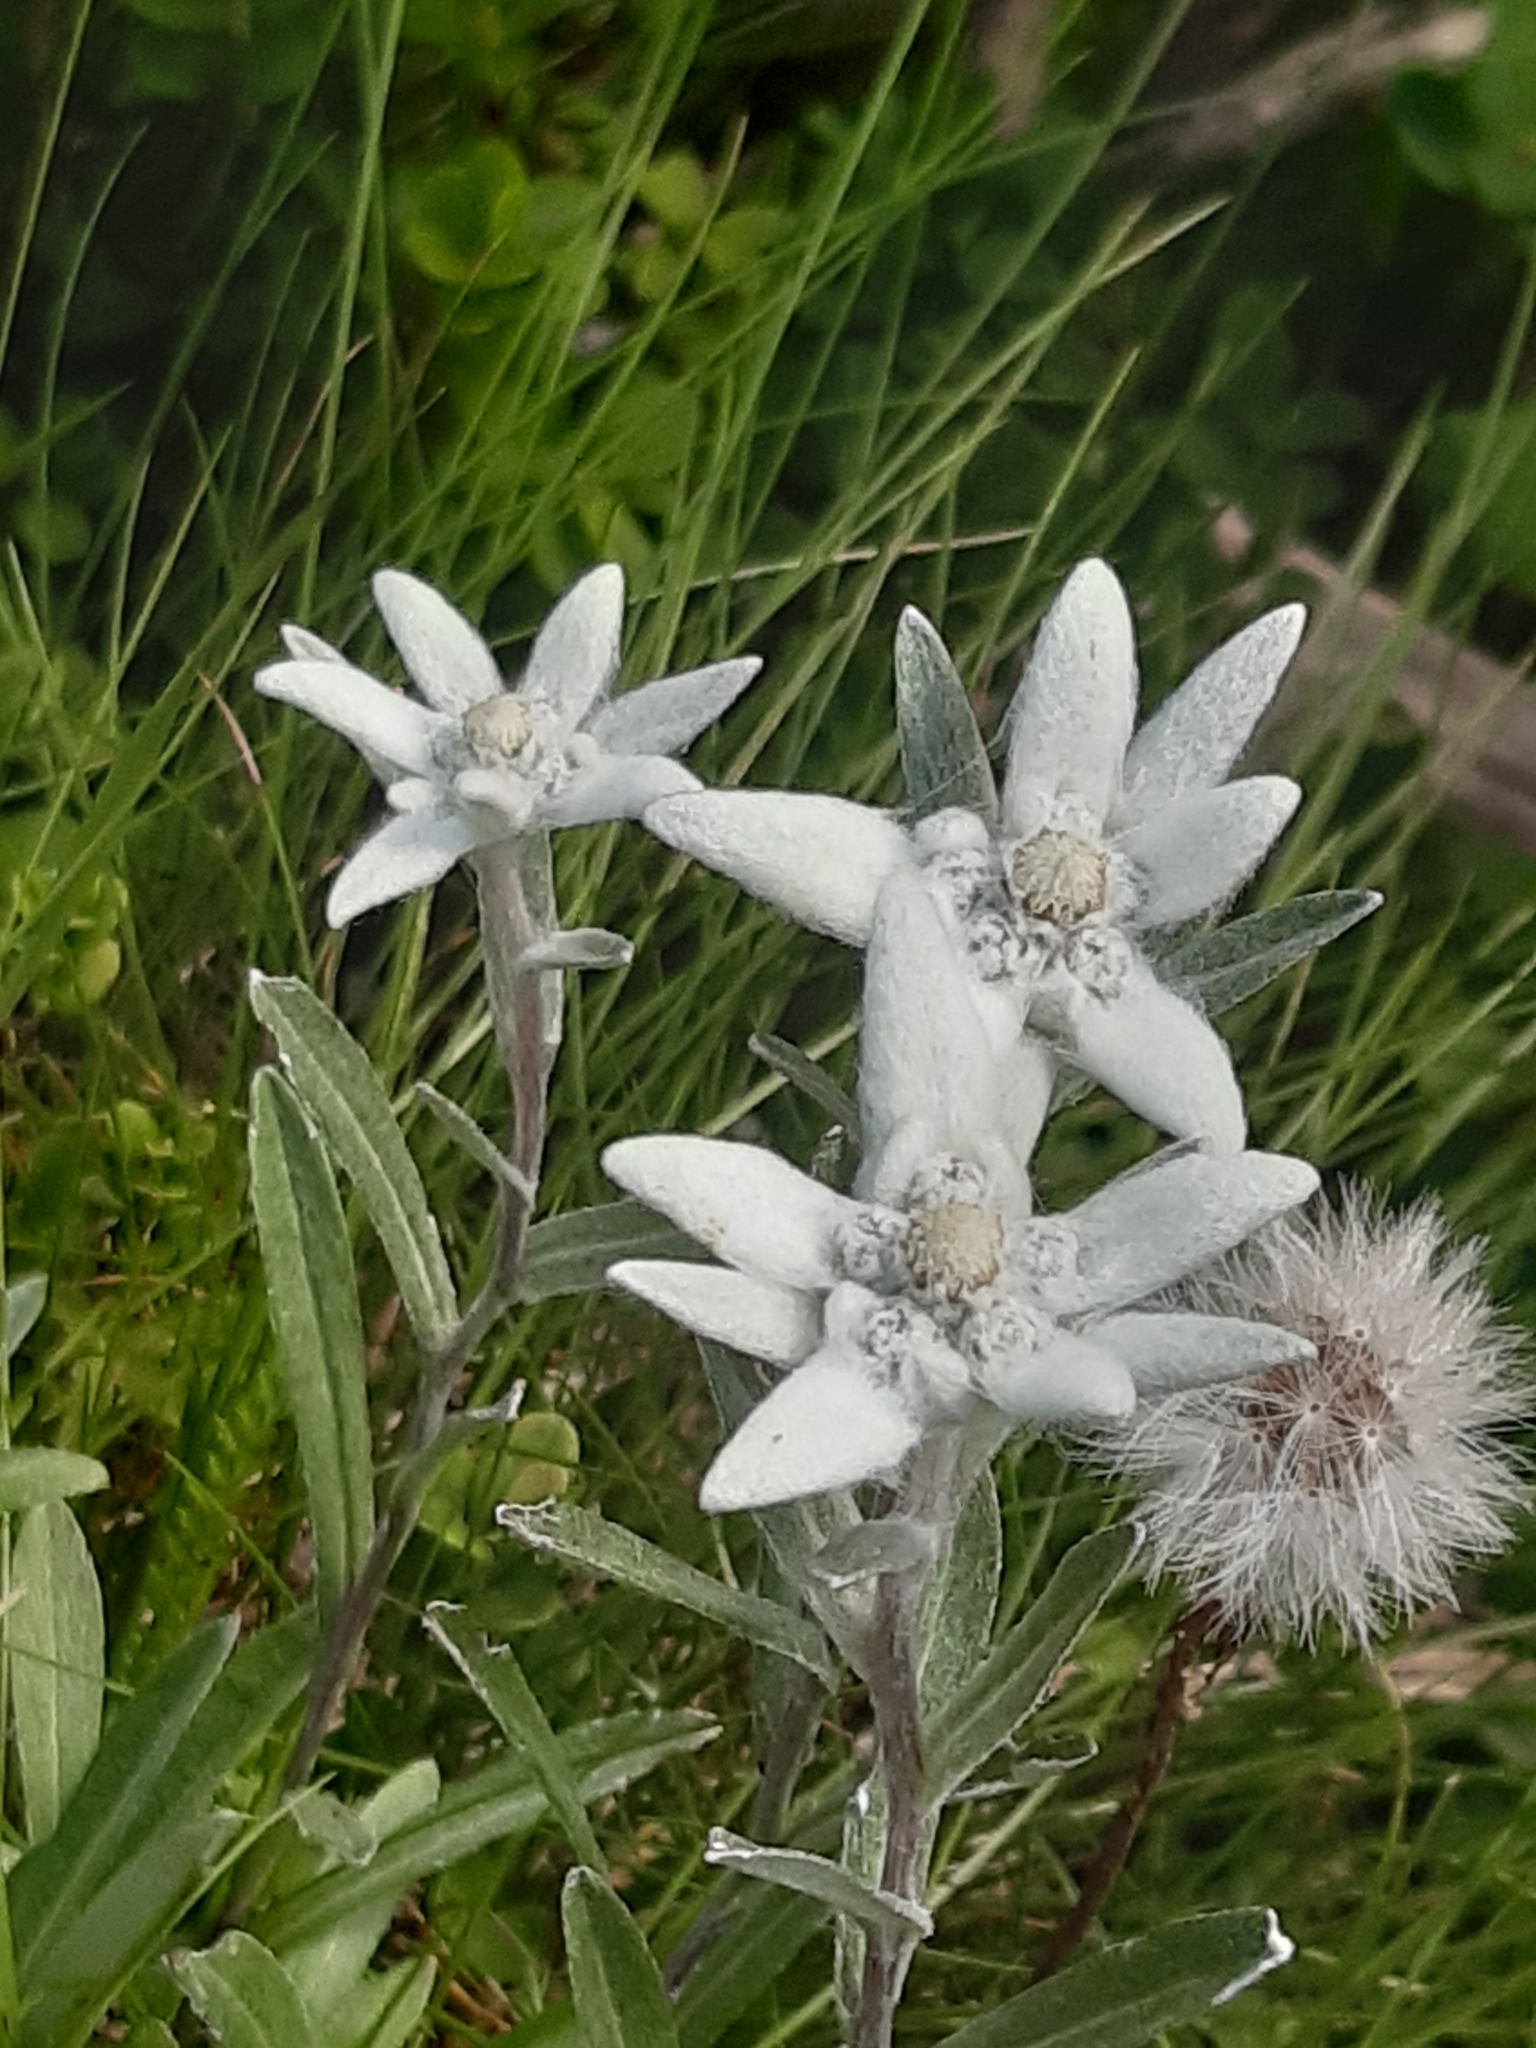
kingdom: Plantae
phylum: Tracheophyta
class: Magnoliopsida
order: Asterales
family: Asteraceae
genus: Leontopodium
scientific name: Leontopodium nivale
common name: Edelweiss
